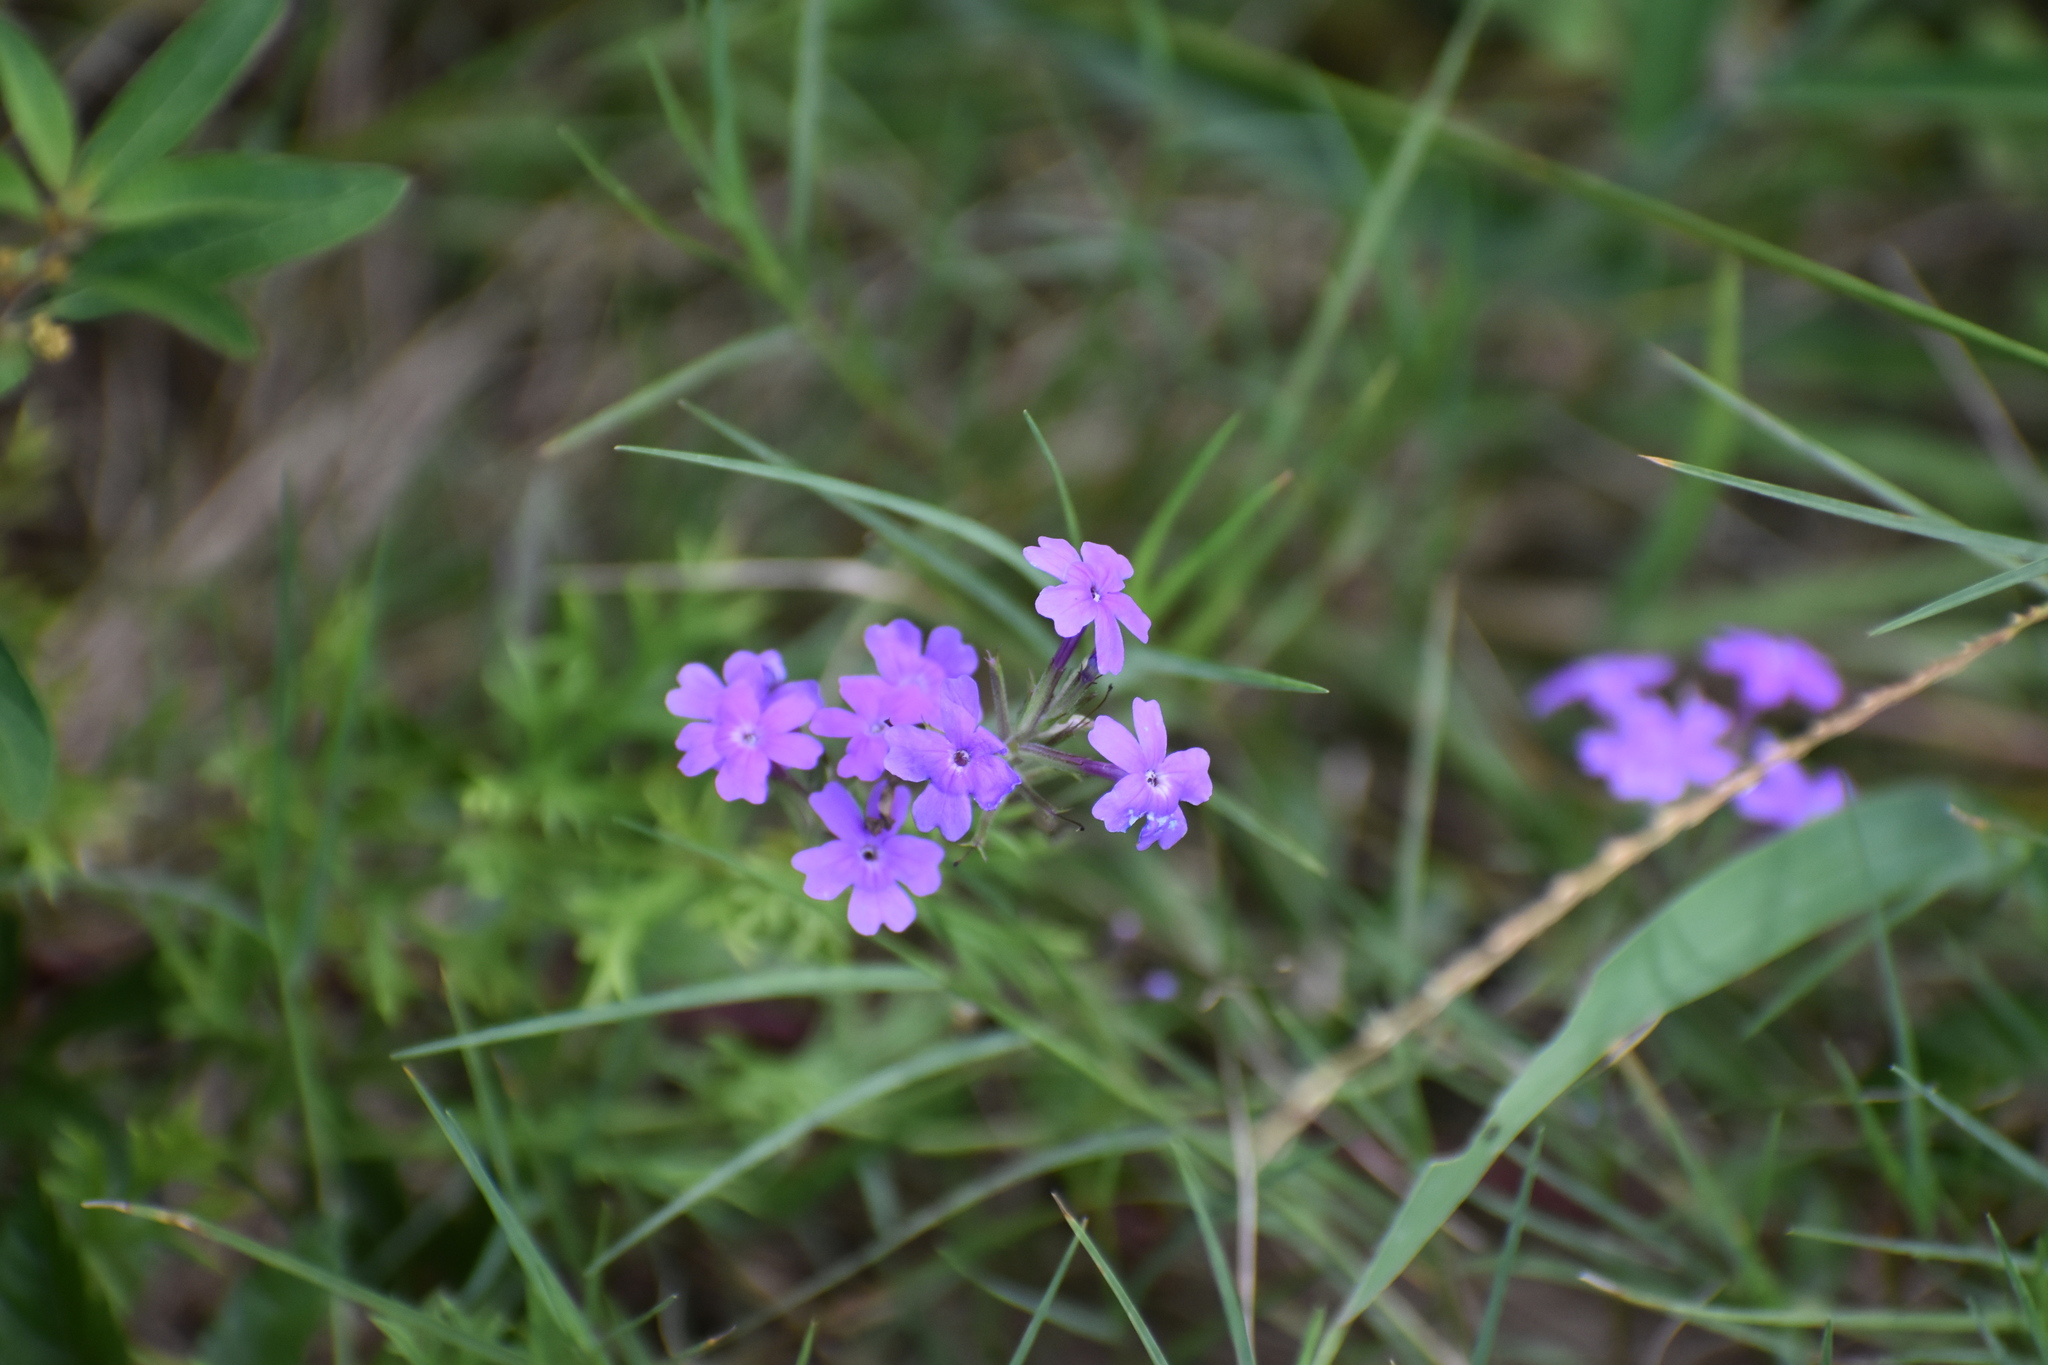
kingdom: Plantae
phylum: Tracheophyta
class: Magnoliopsida
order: Lamiales
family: Verbenaceae
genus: Verbena
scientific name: Verbena aristigera
